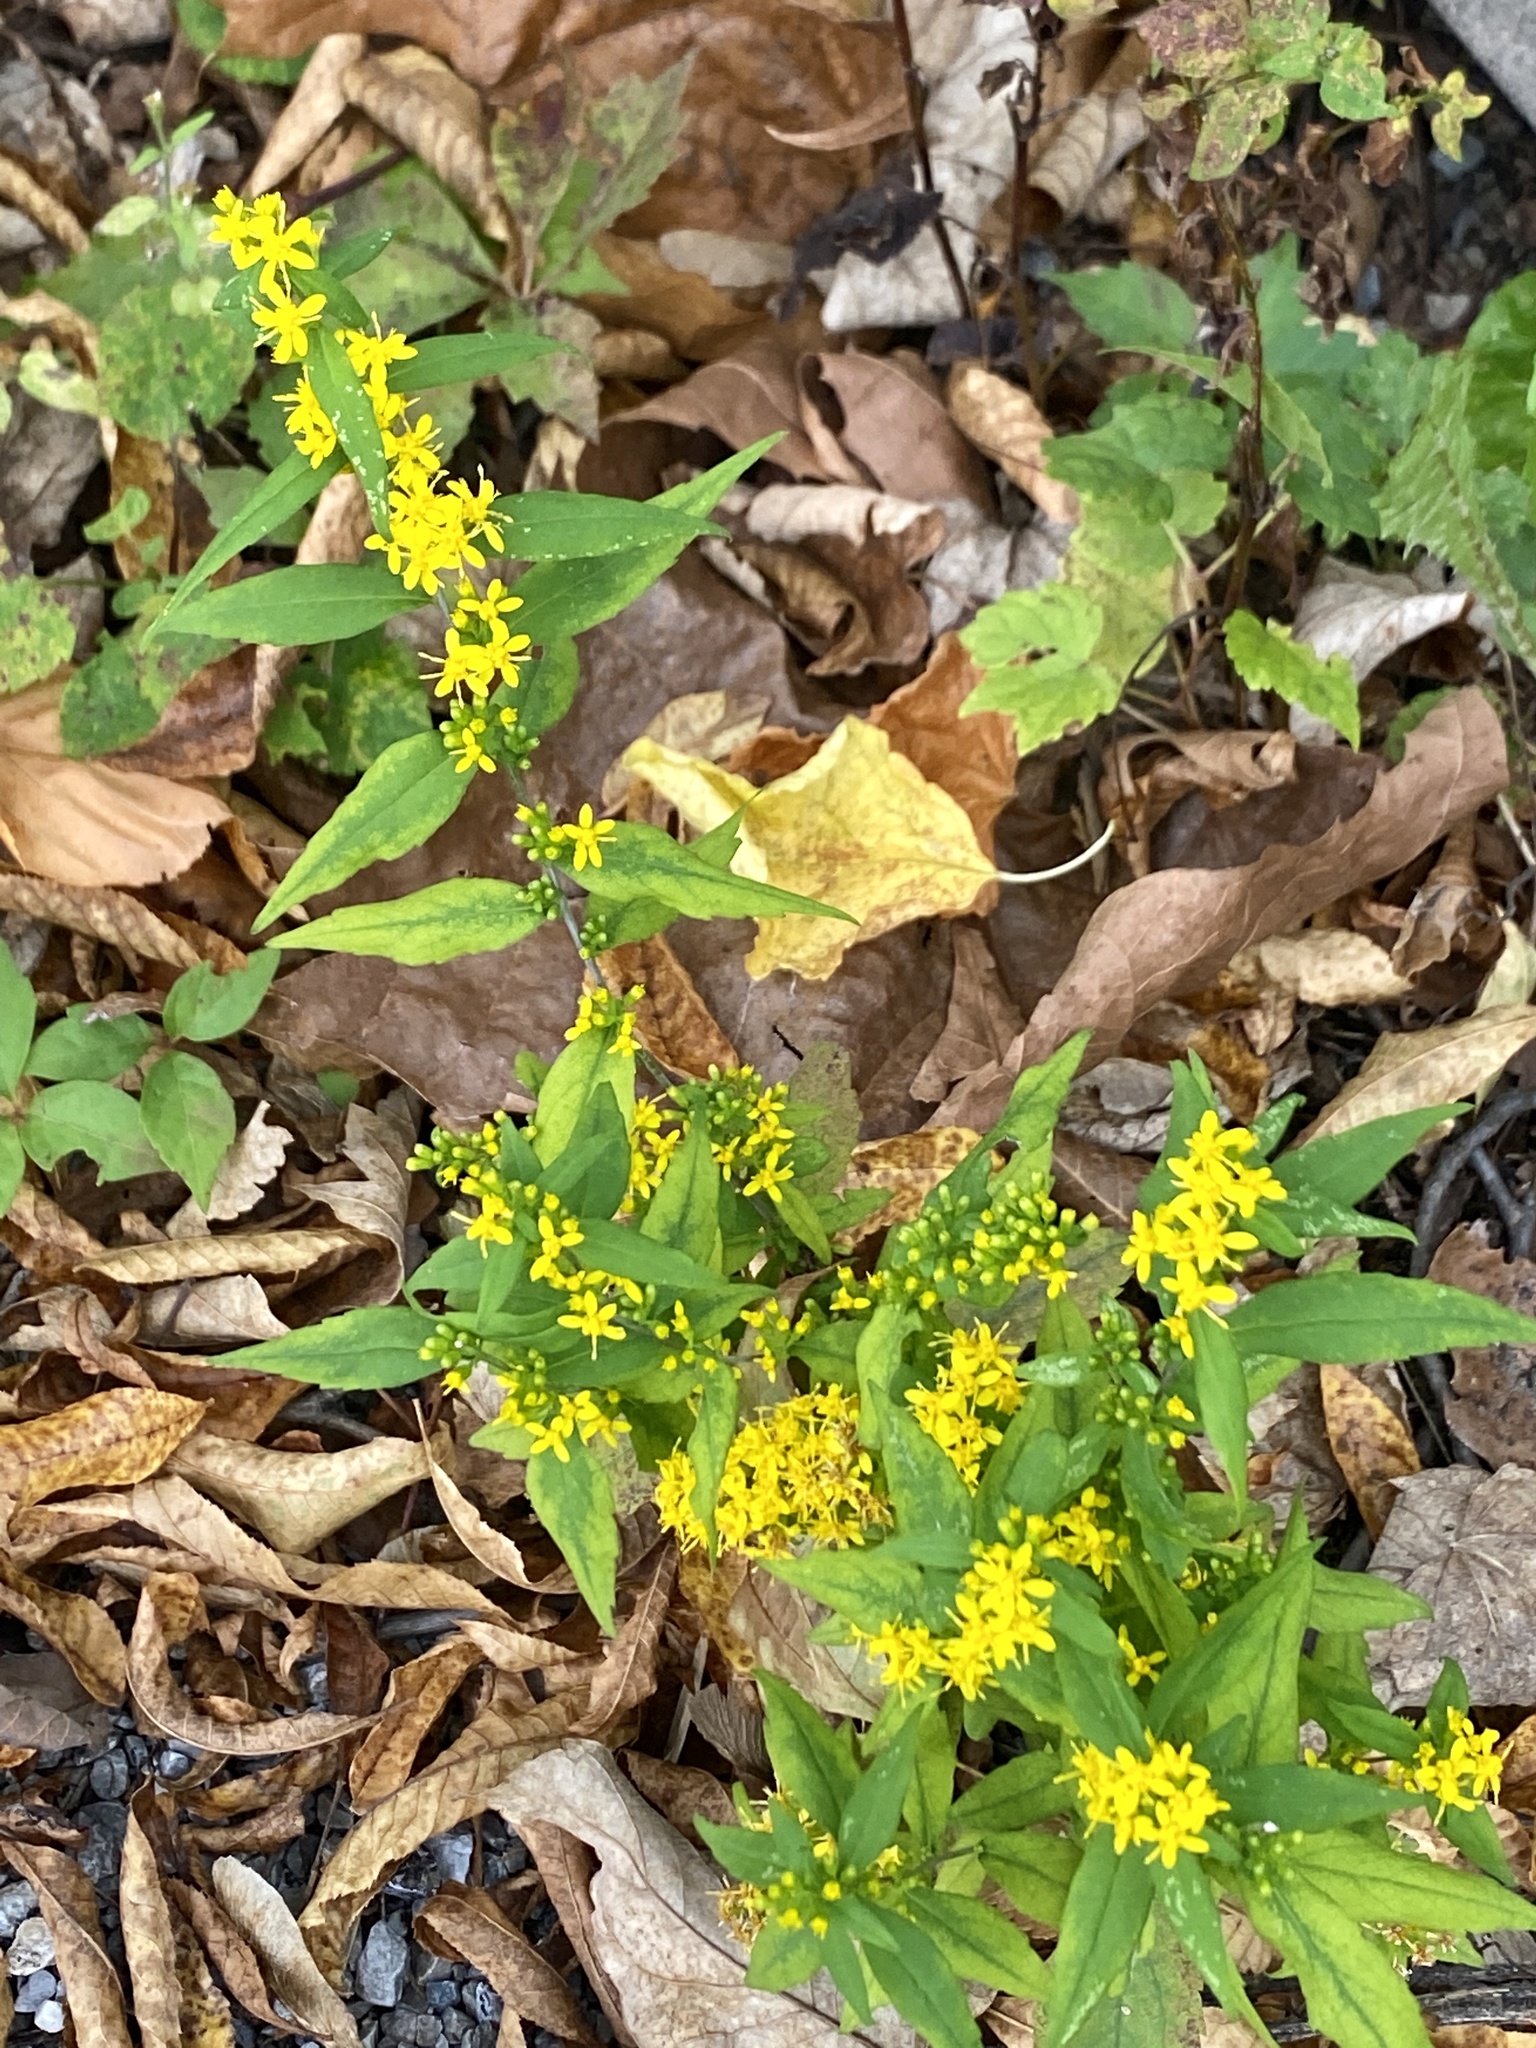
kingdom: Plantae
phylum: Tracheophyta
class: Magnoliopsida
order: Asterales
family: Asteraceae
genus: Solidago
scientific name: Solidago caesia
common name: Woodland goldenrod
